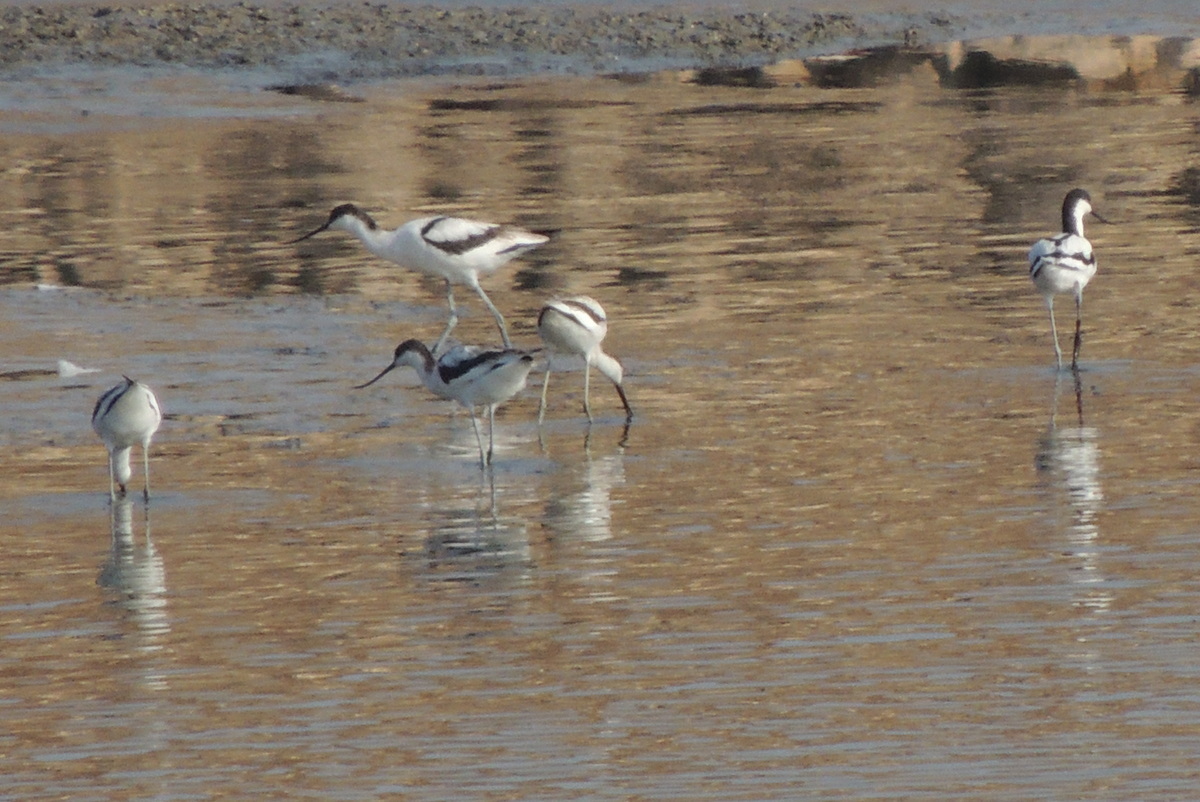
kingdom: Animalia
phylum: Chordata
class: Aves
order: Charadriiformes
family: Recurvirostridae
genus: Recurvirostra
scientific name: Recurvirostra avosetta
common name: Pied avocet
